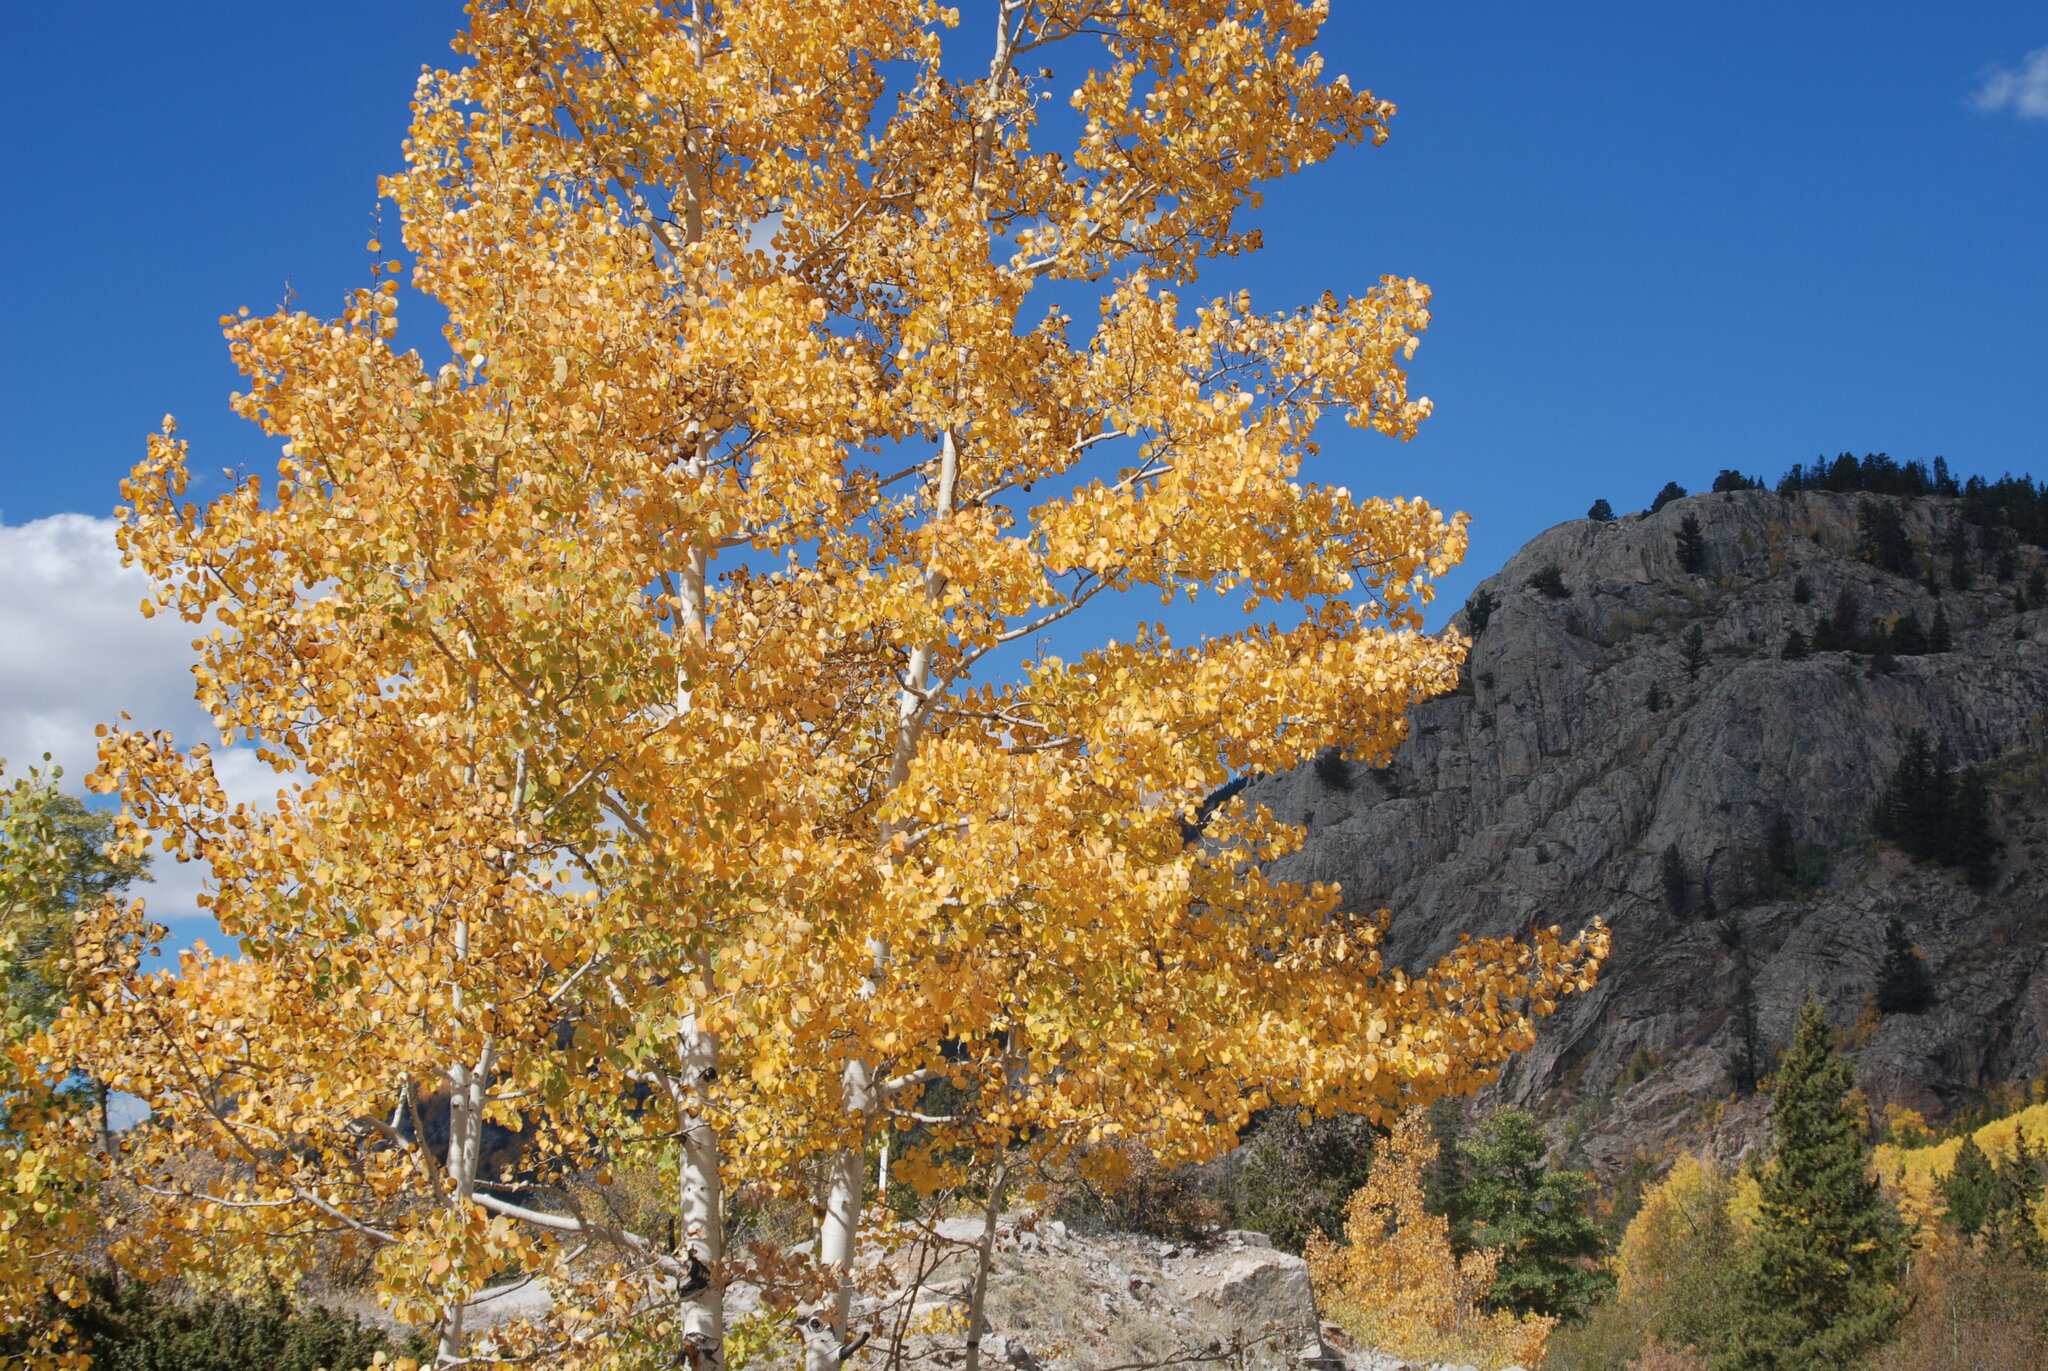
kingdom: Plantae
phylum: Tracheophyta
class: Magnoliopsida
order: Malpighiales
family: Salicaceae
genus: Populus
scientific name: Populus tremuloides
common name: Quaking aspen
